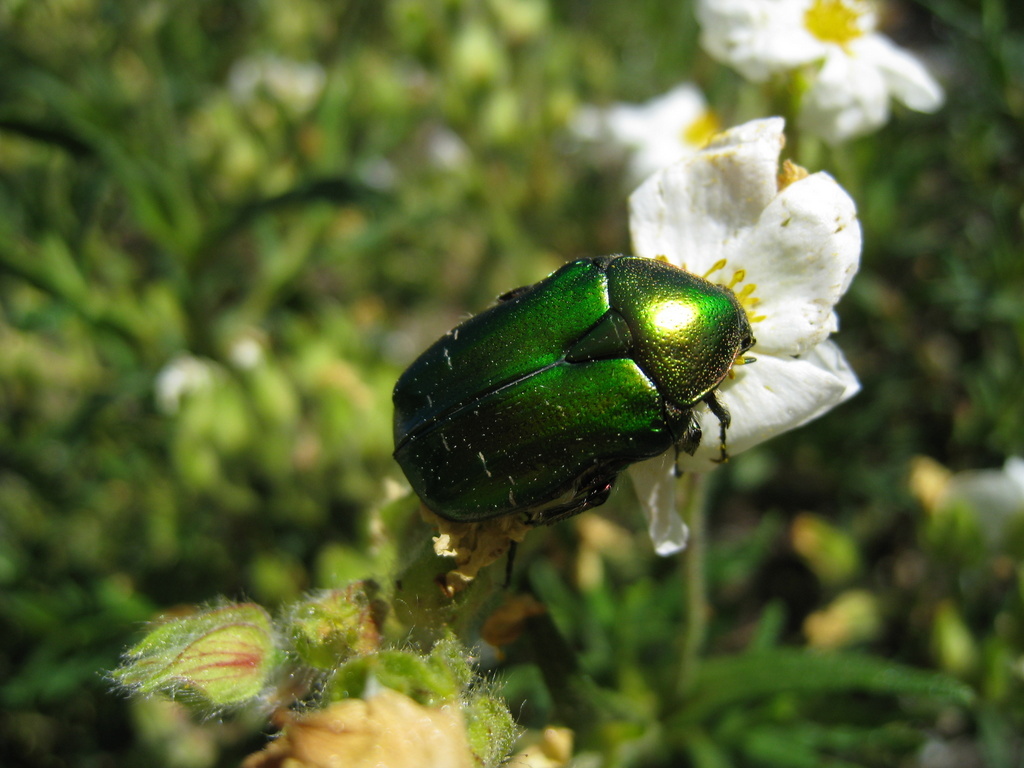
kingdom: Animalia
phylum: Arthropoda
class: Insecta
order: Coleoptera
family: Scarabaeidae
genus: Cetonia
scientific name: Cetonia aurata
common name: Rose chafer
